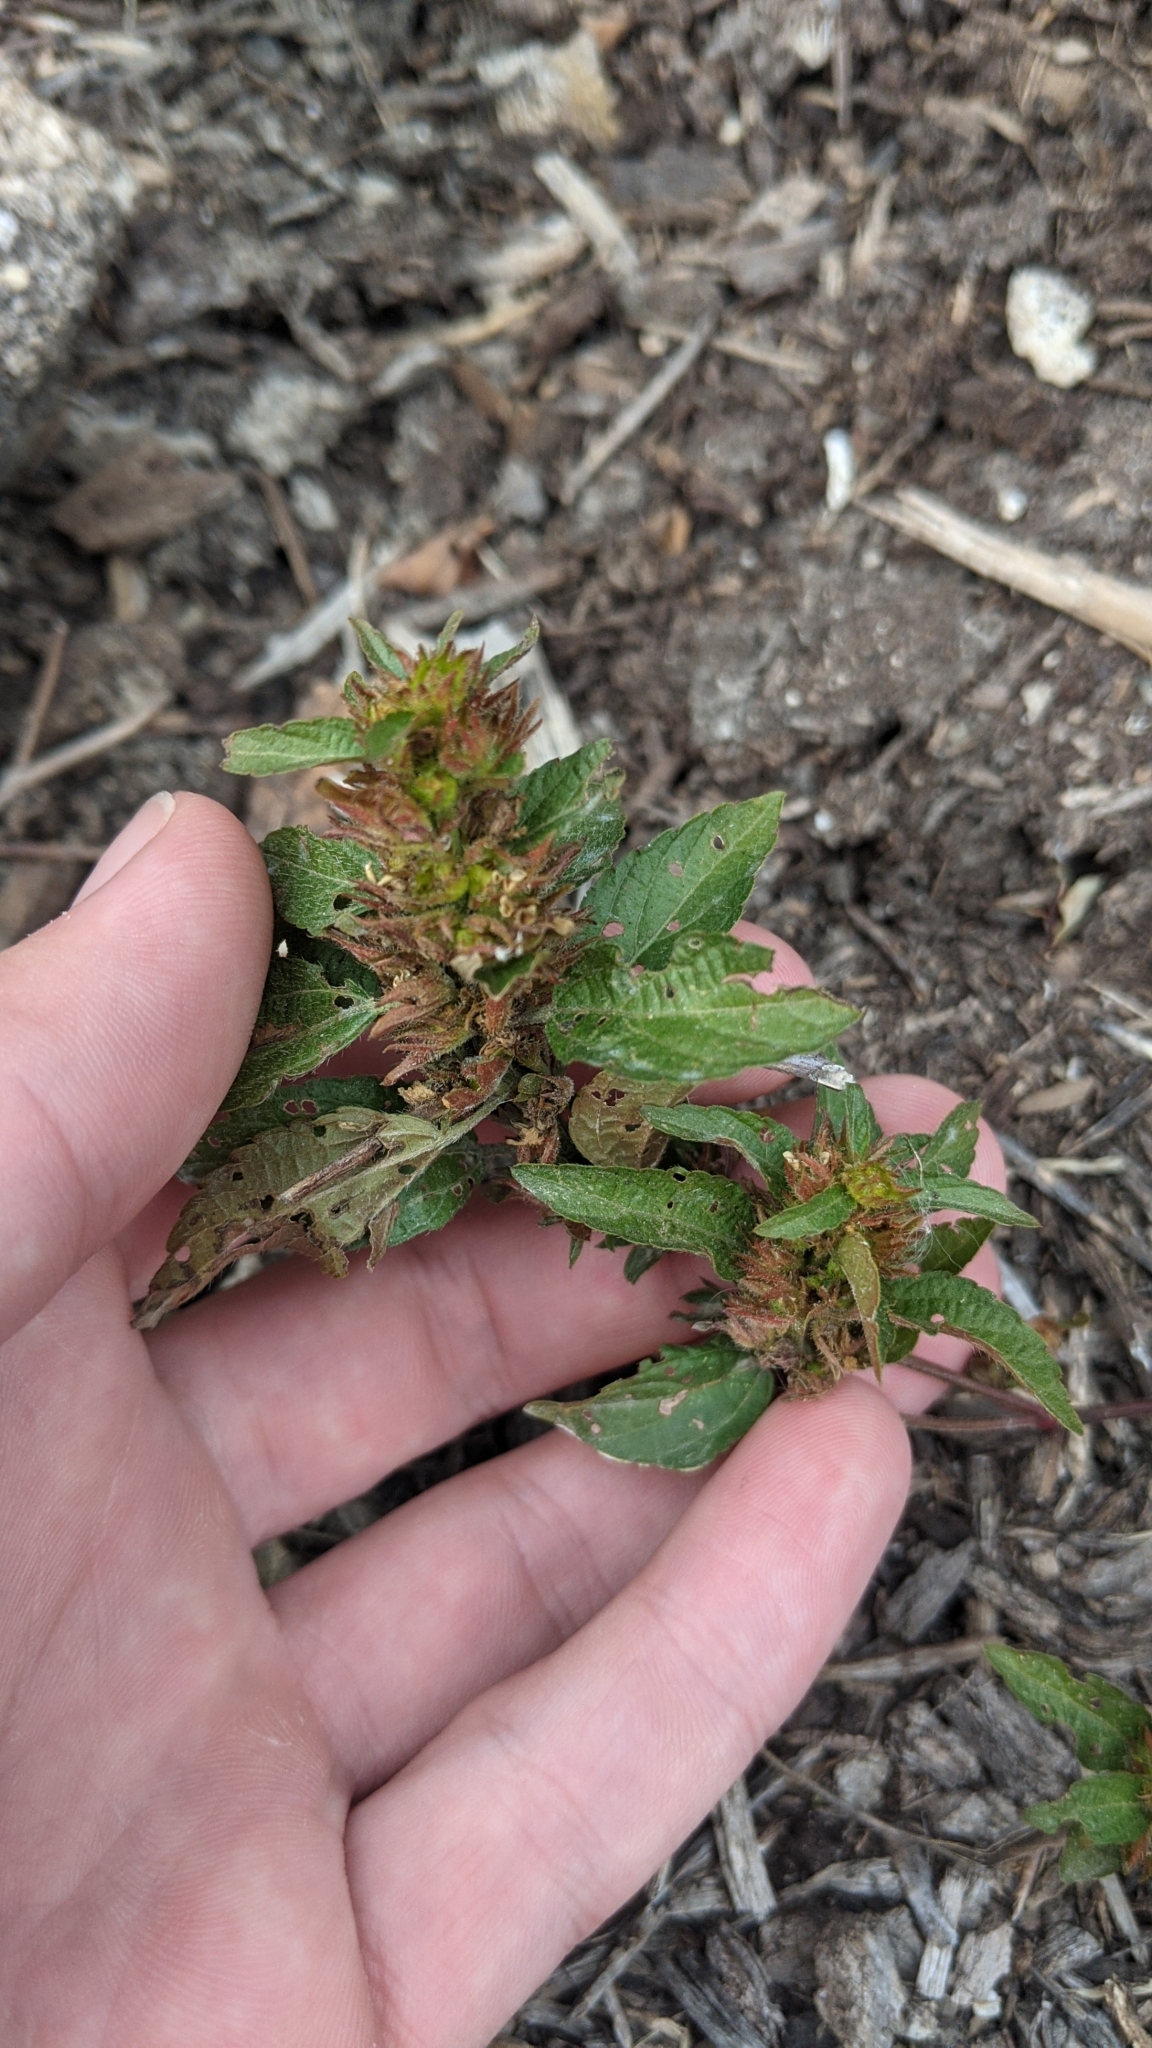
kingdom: Plantae
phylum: Tracheophyta
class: Magnoliopsida
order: Malpighiales
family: Euphorbiaceae
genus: Acalypha
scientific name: Acalypha rhomboidea
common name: Rhombic copperleaf
